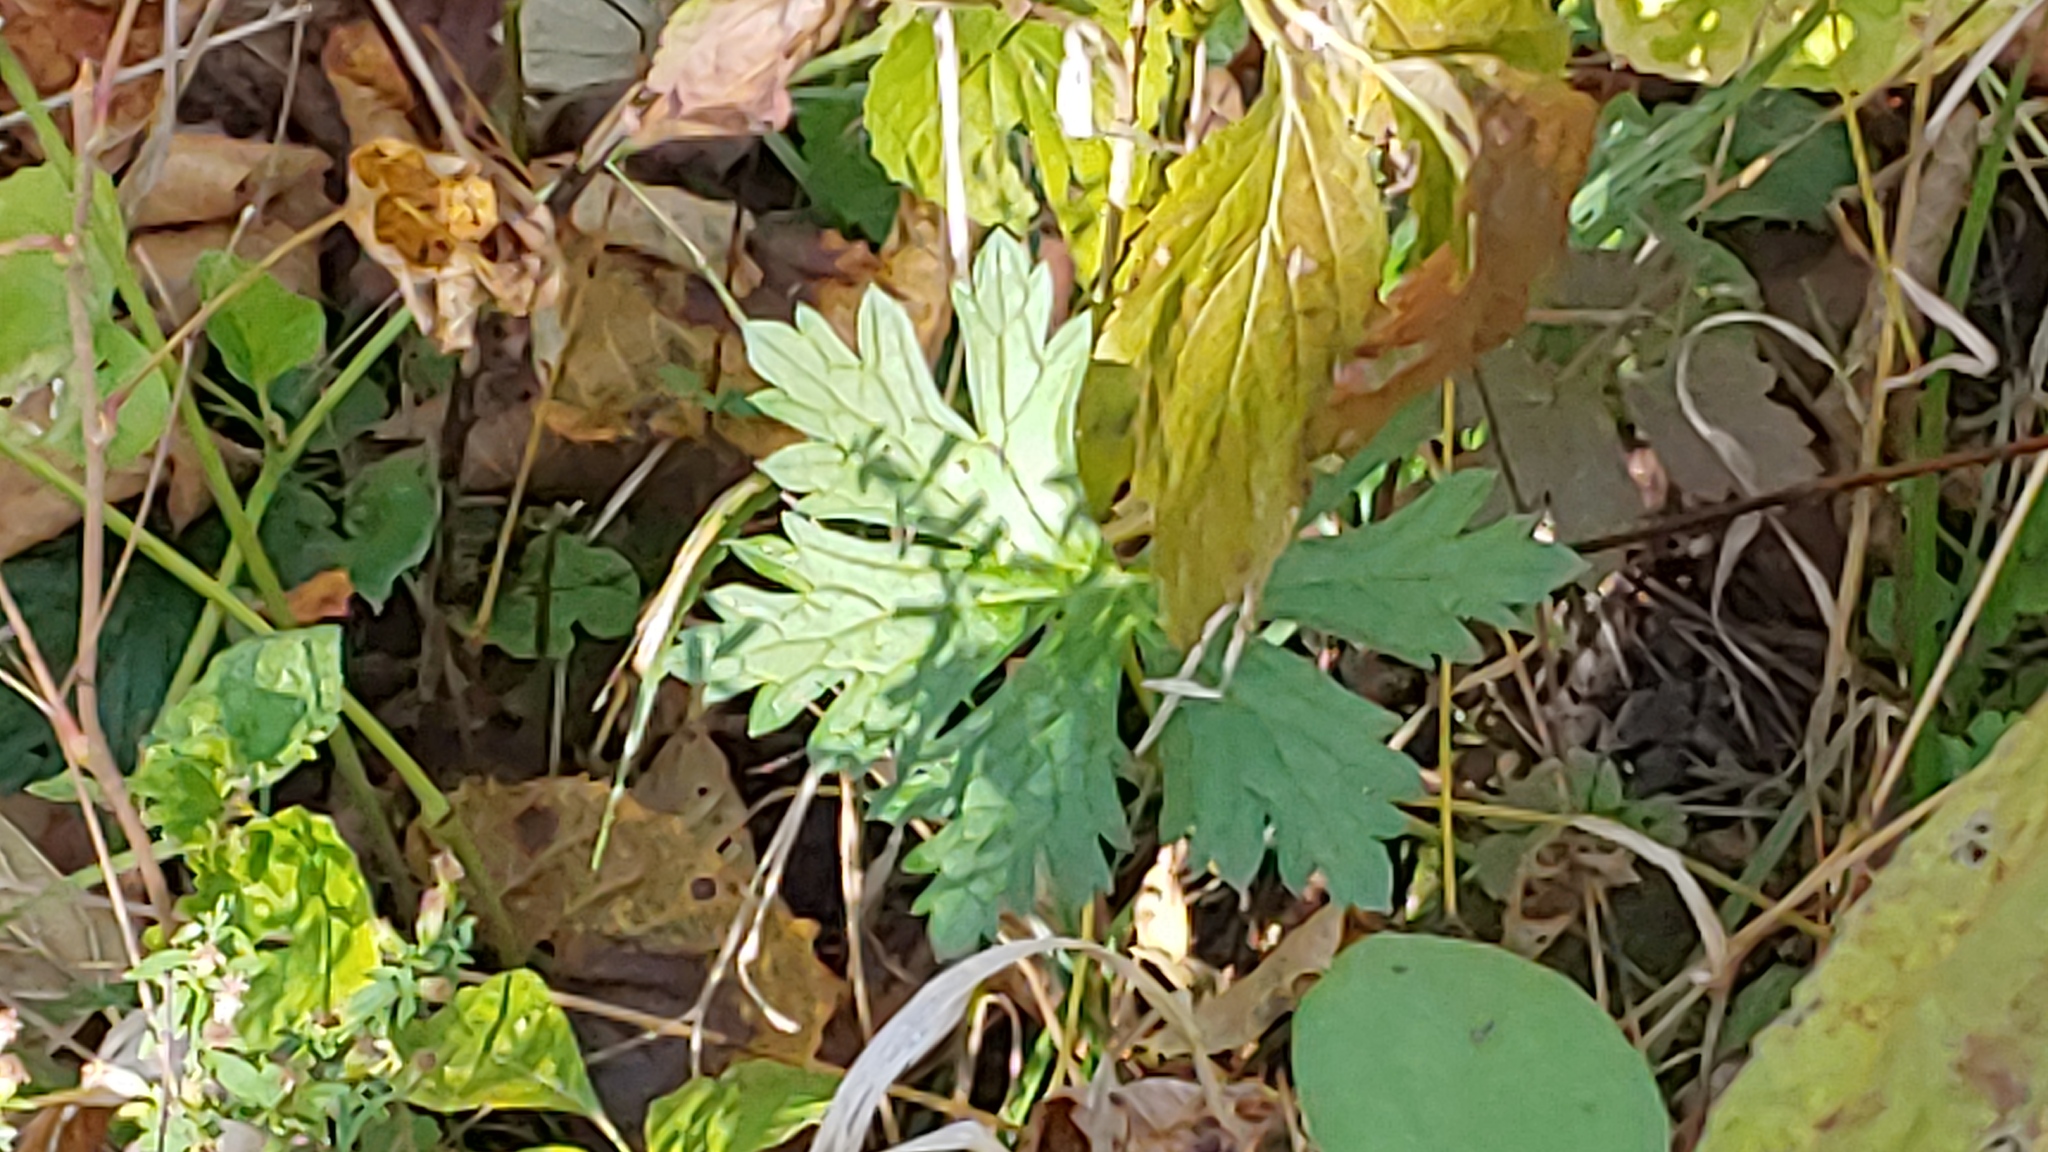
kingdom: Plantae
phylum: Tracheophyta
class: Magnoliopsida
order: Geraniales
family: Geraniaceae
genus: Geranium
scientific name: Geranium maculatum
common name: Spotted geranium
